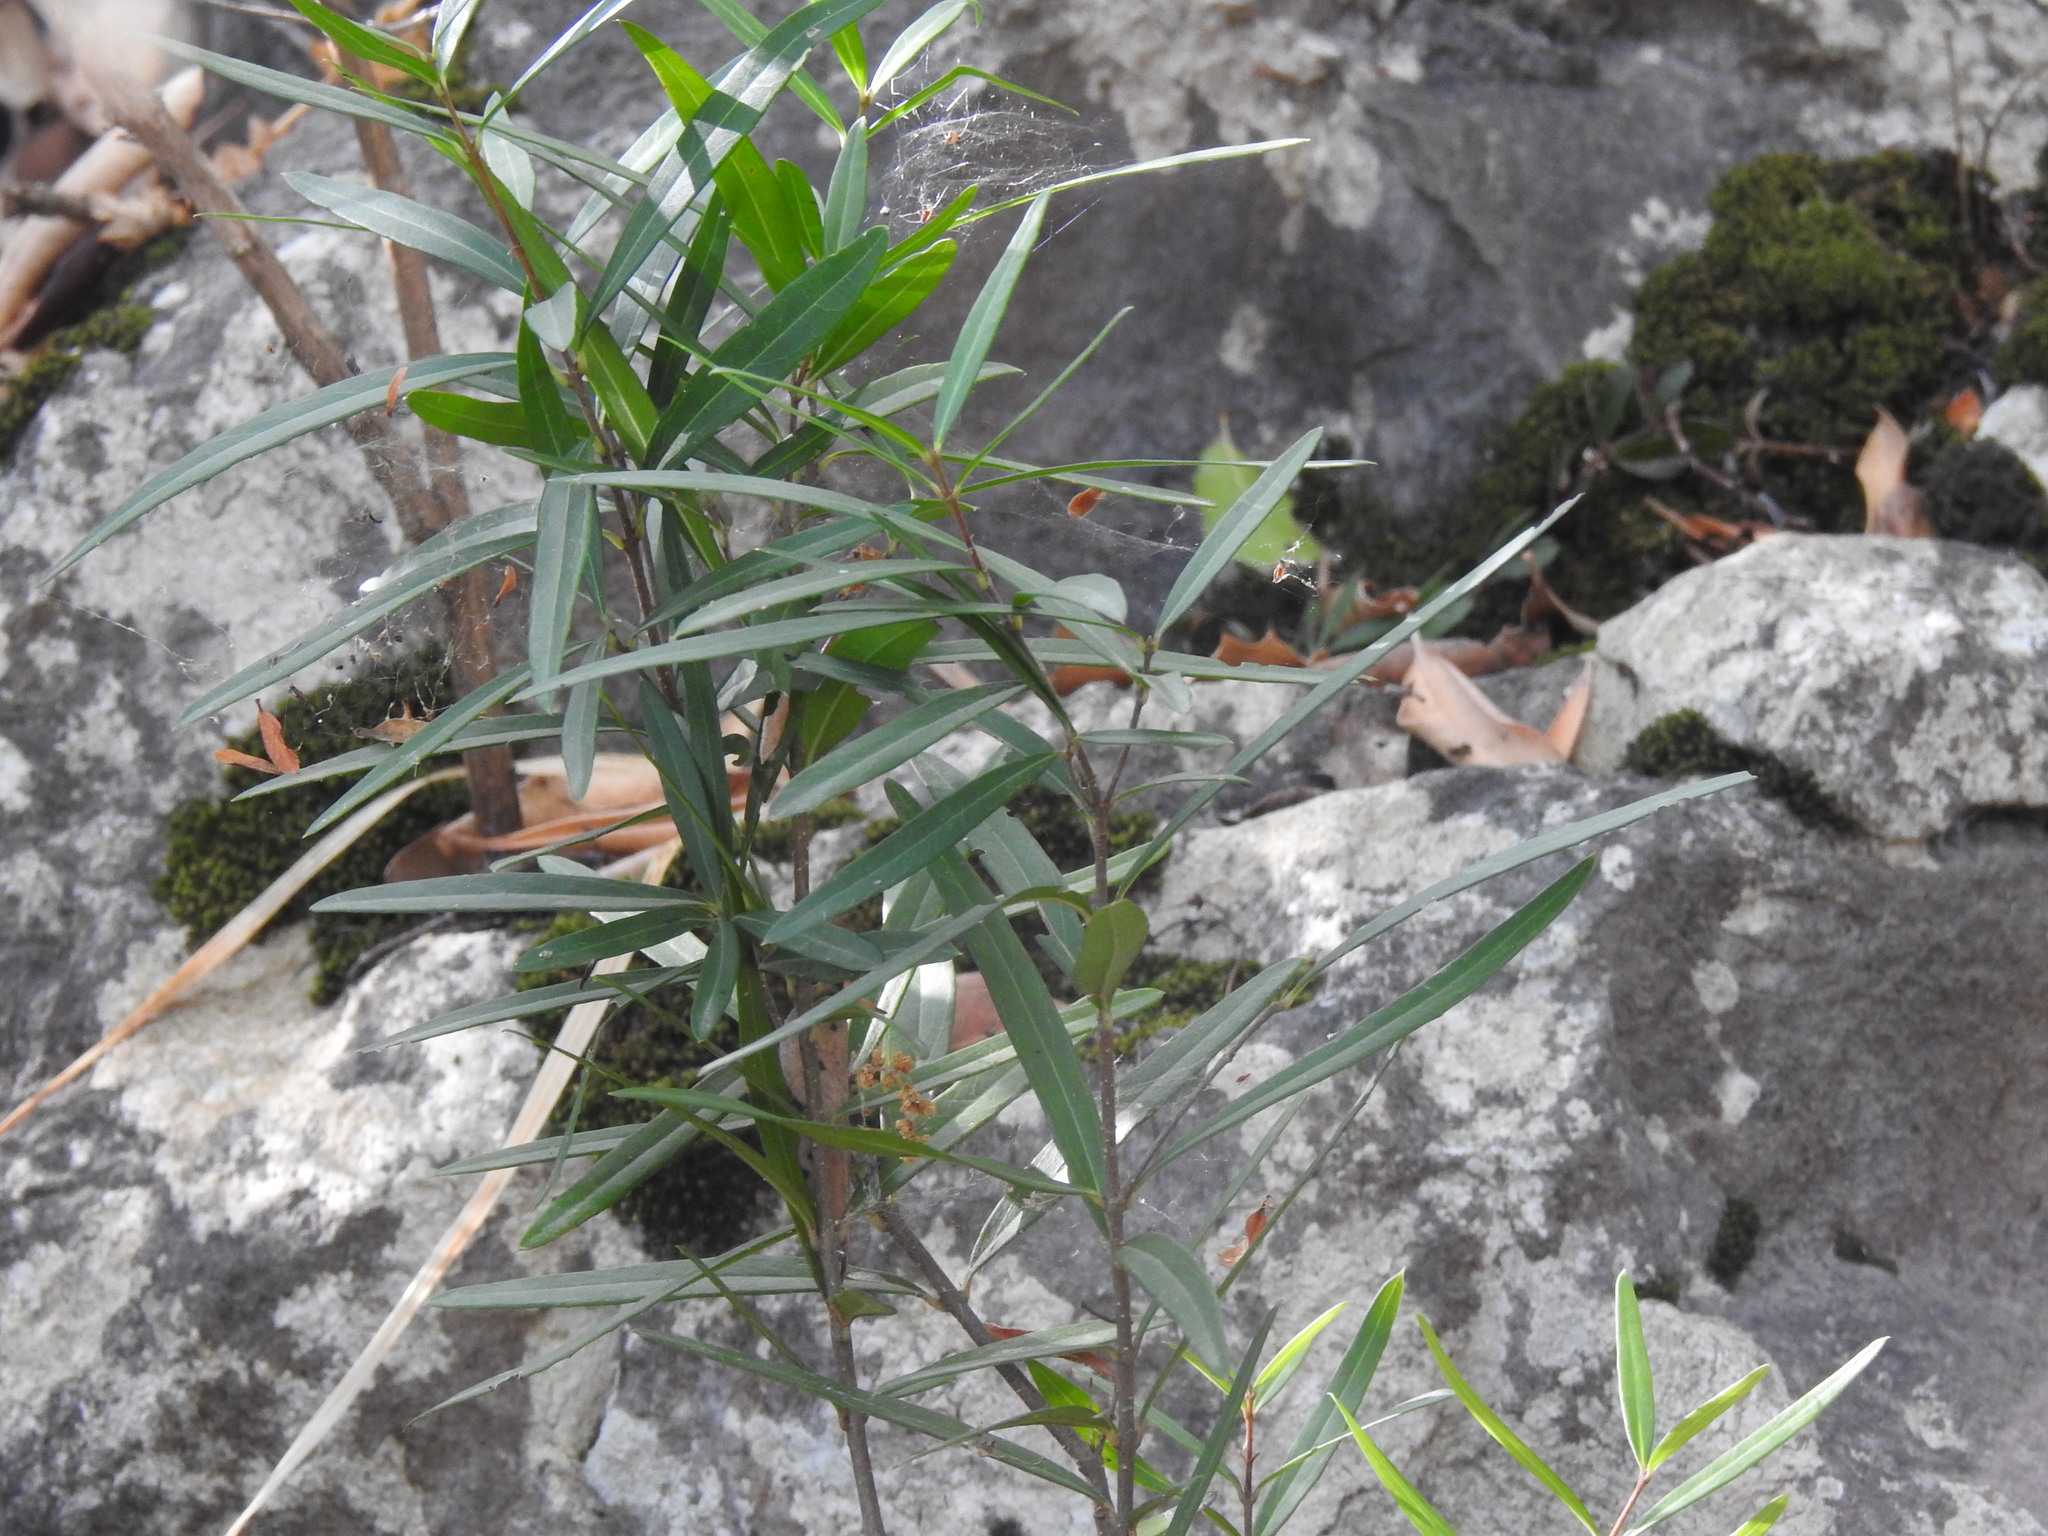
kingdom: Plantae
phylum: Tracheophyta
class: Magnoliopsida
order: Lamiales
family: Oleaceae
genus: Phillyrea
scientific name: Phillyrea angustifolia
